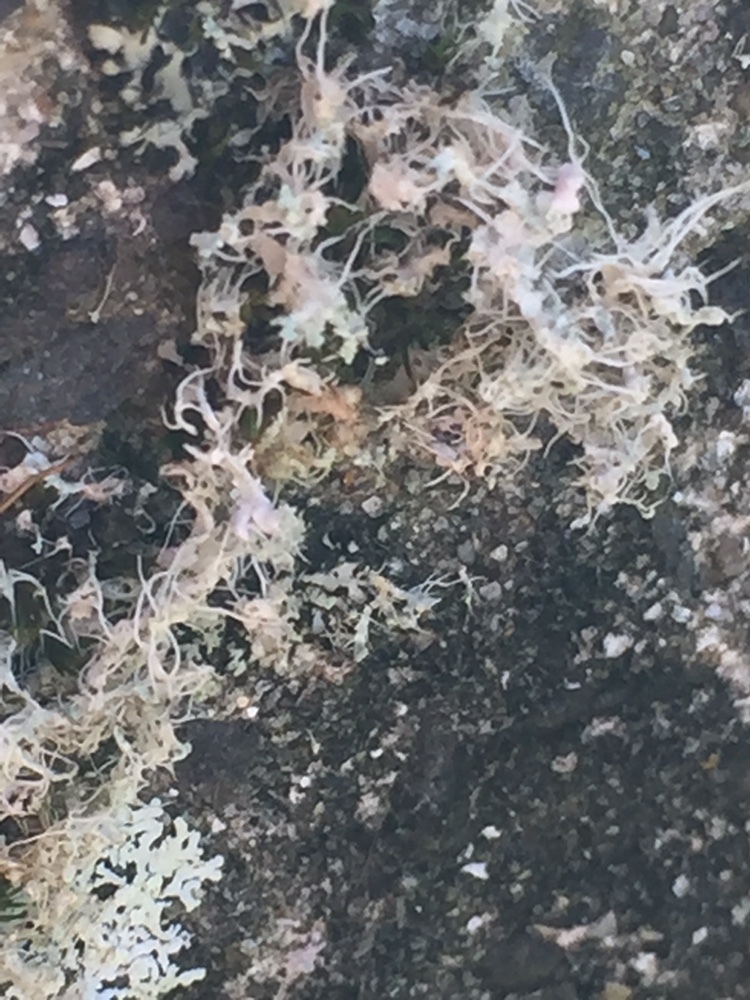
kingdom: Fungi
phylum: Ascomycota
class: Lecanoromycetes
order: Caliciales
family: Physciaceae
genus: Physcia
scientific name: Physcia adscendens
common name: Hooded rosette lichen
